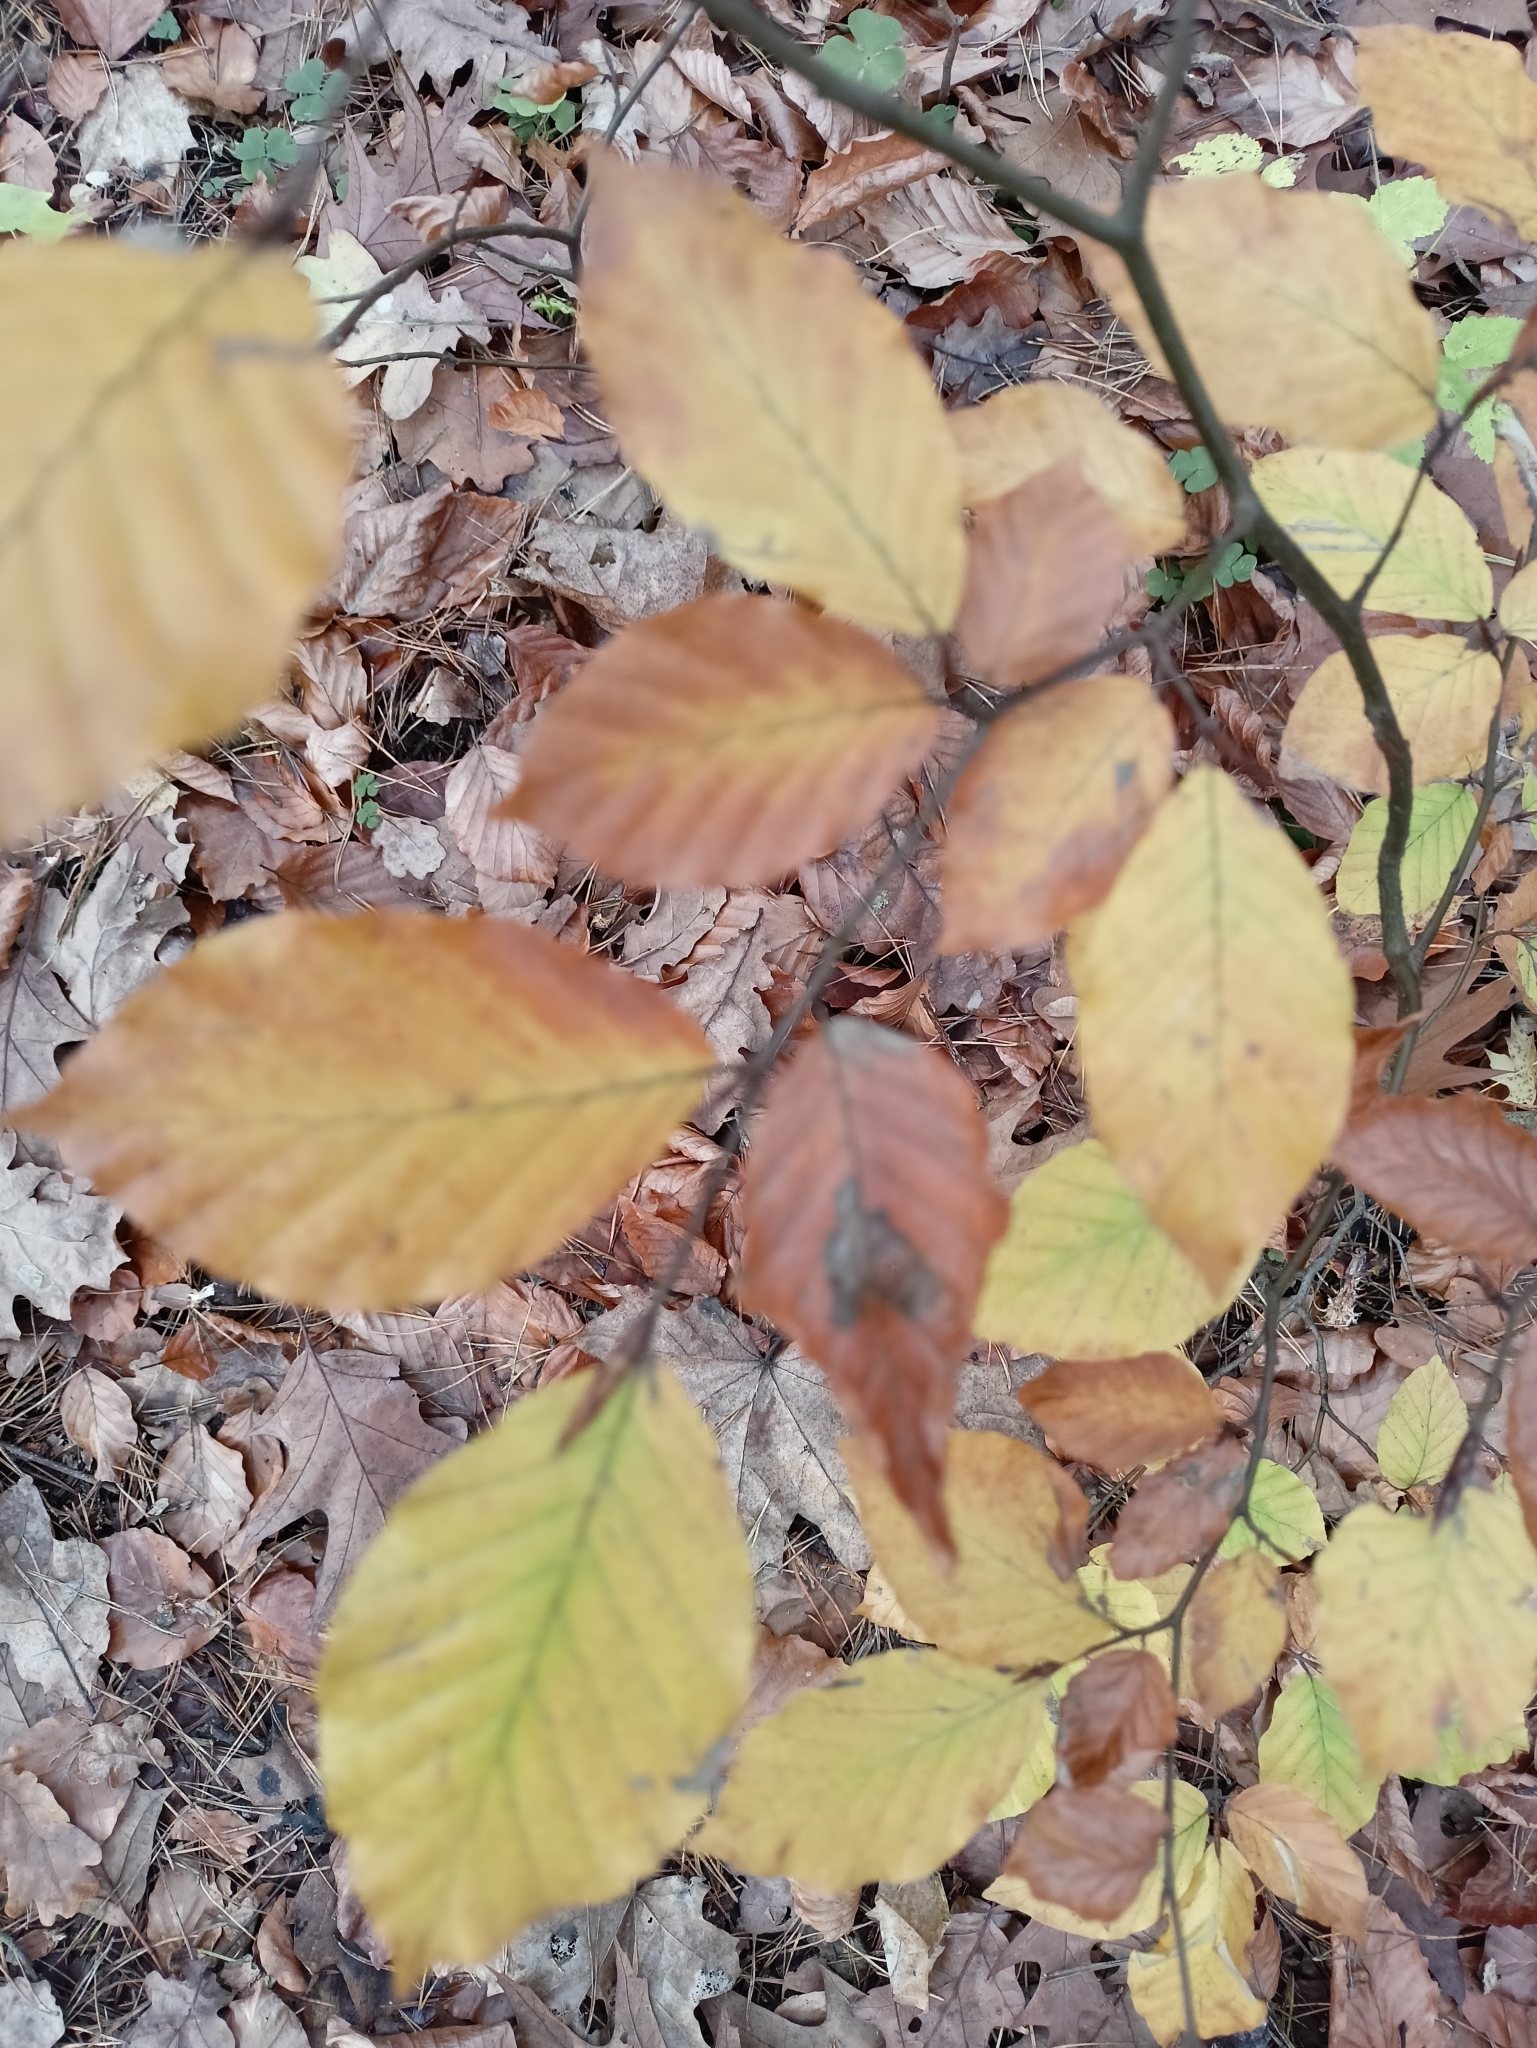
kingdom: Plantae
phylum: Tracheophyta
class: Magnoliopsida
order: Fagales
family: Fagaceae
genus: Fagus
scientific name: Fagus sylvatica
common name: Beech
